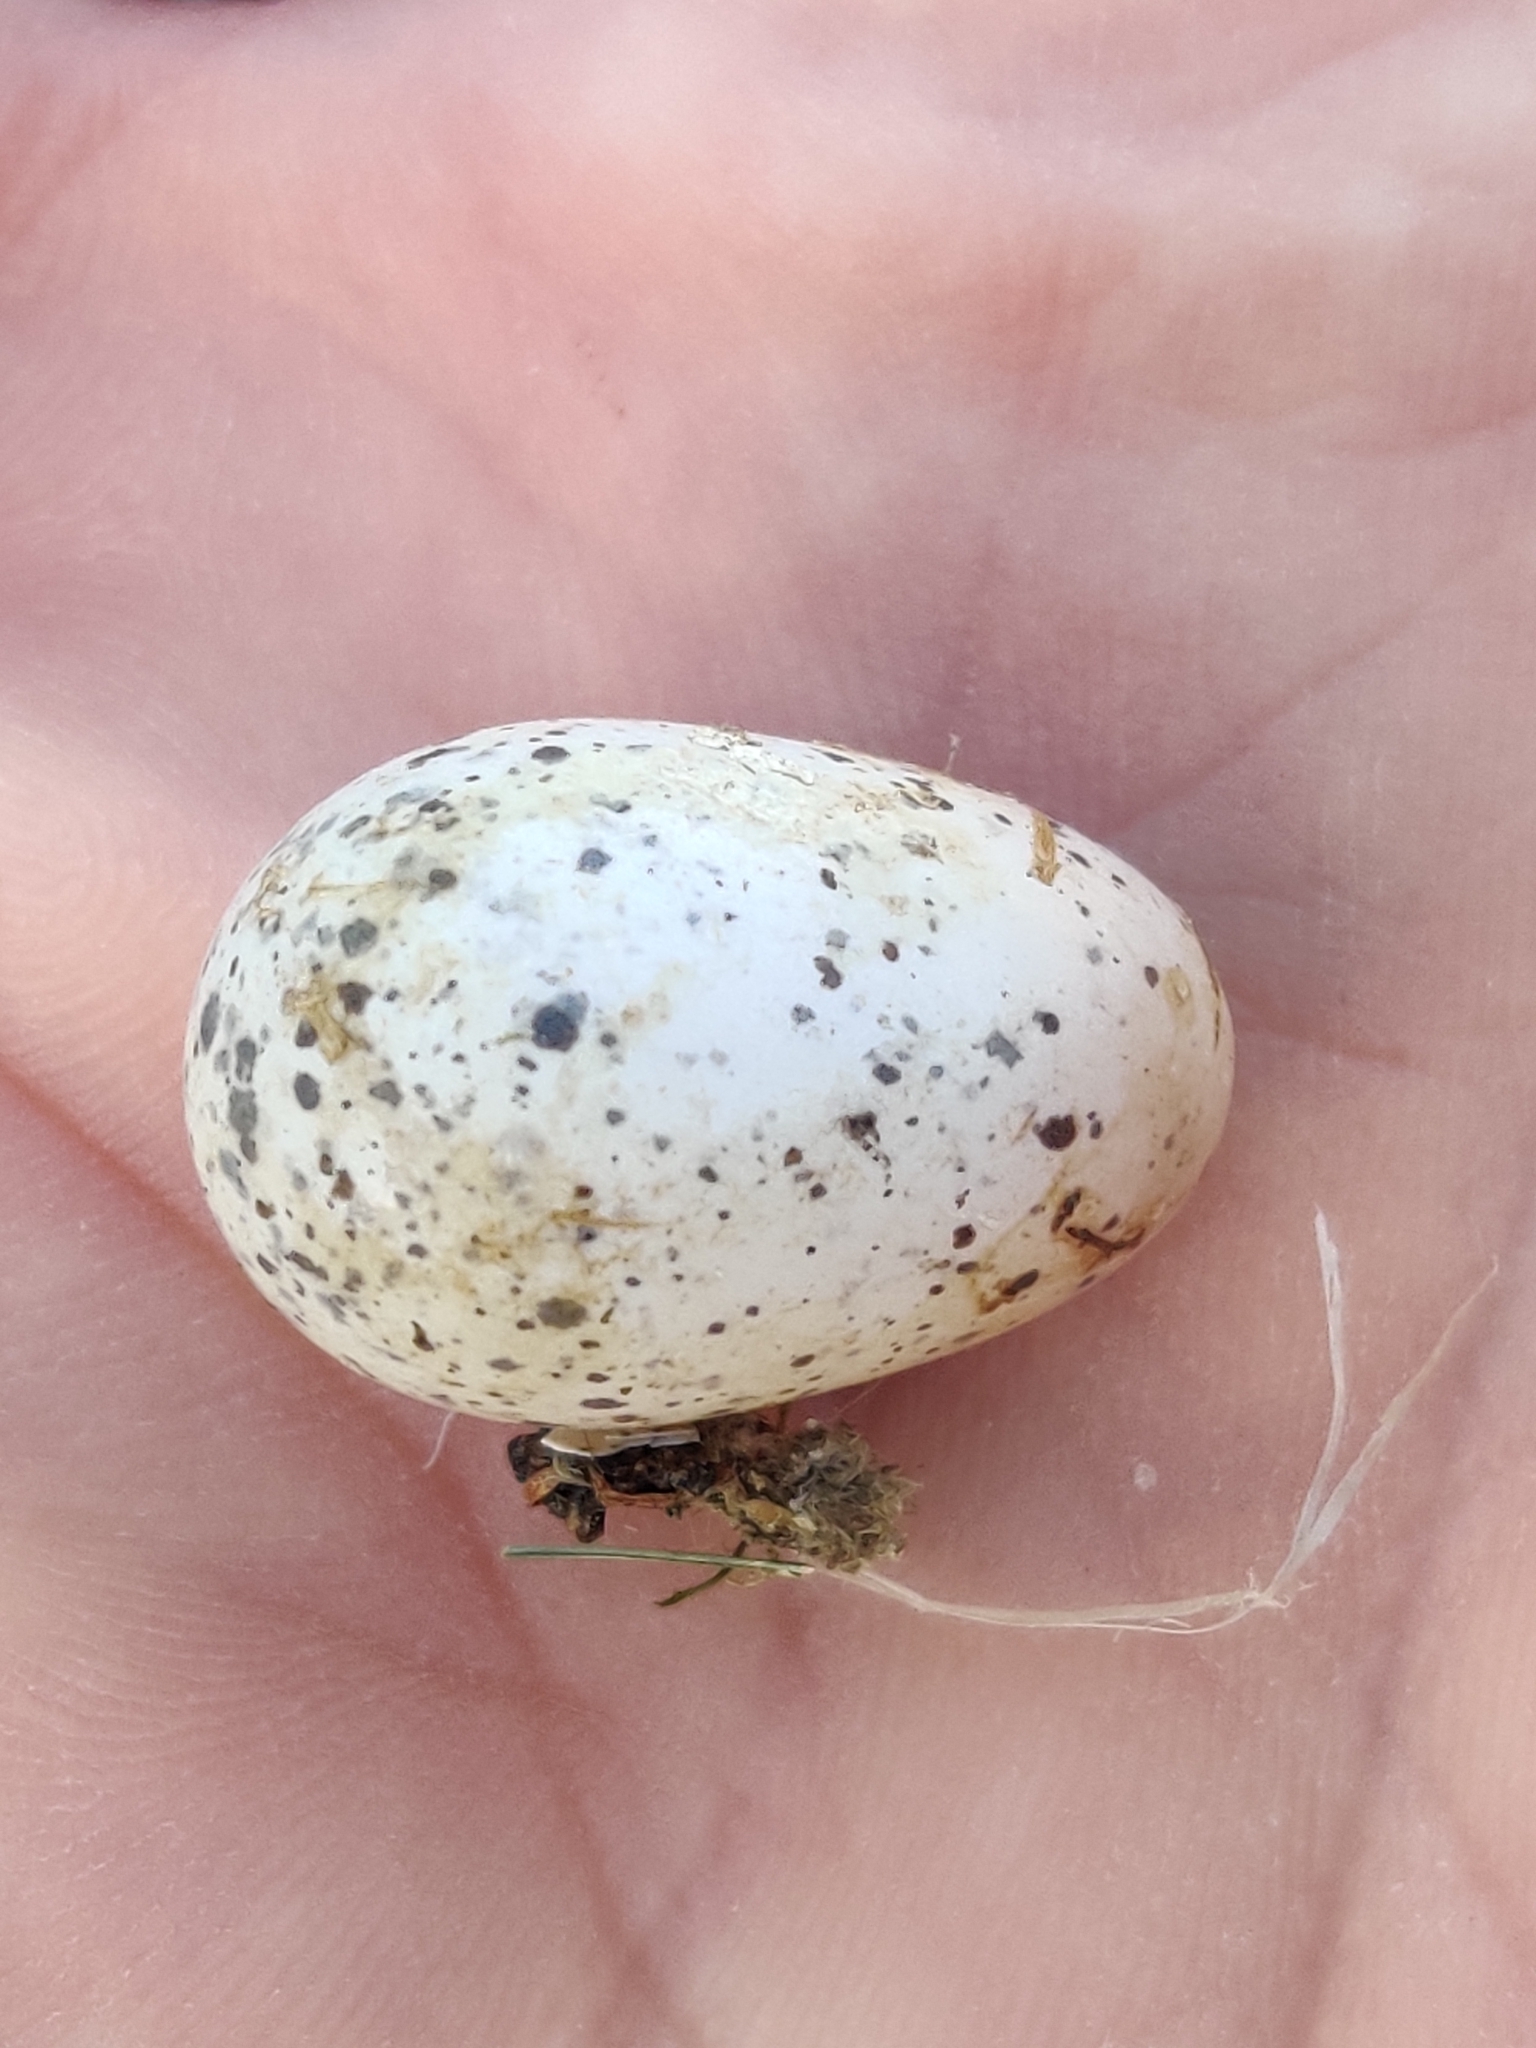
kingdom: Animalia
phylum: Chordata
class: Aves
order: Passeriformes
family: Passeridae
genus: Passer
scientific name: Passer domesticus
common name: House sparrow
